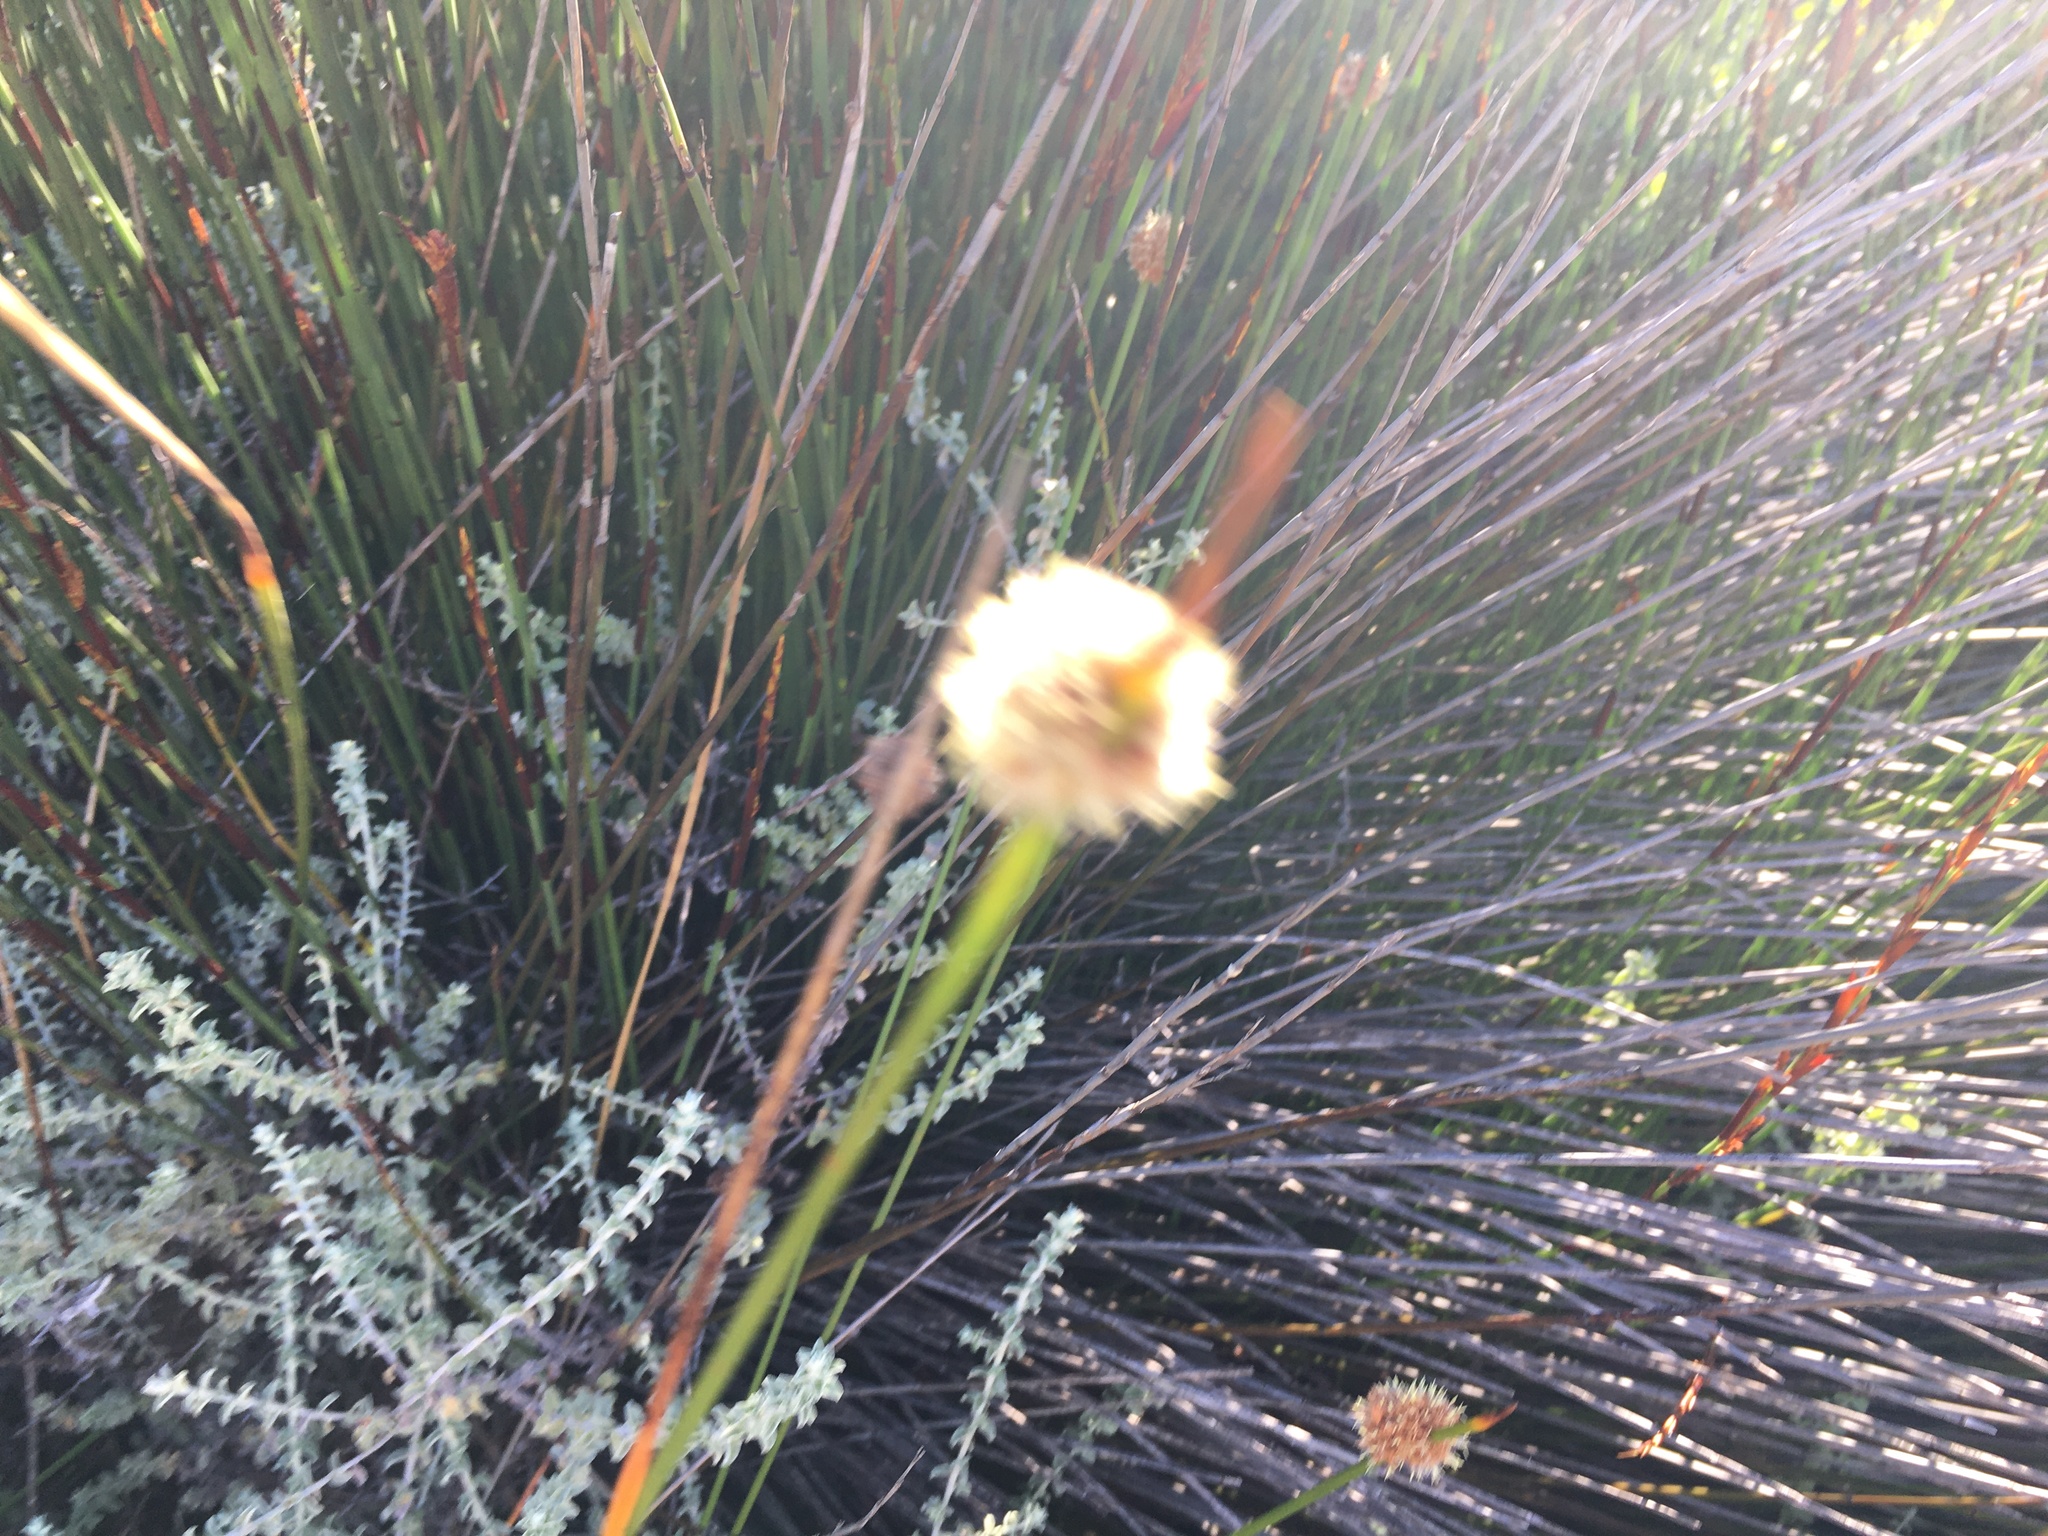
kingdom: Plantae
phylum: Tracheophyta
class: Liliopsida
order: Poales
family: Cyperaceae
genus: Ficinia
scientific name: Ficinia nodosa
